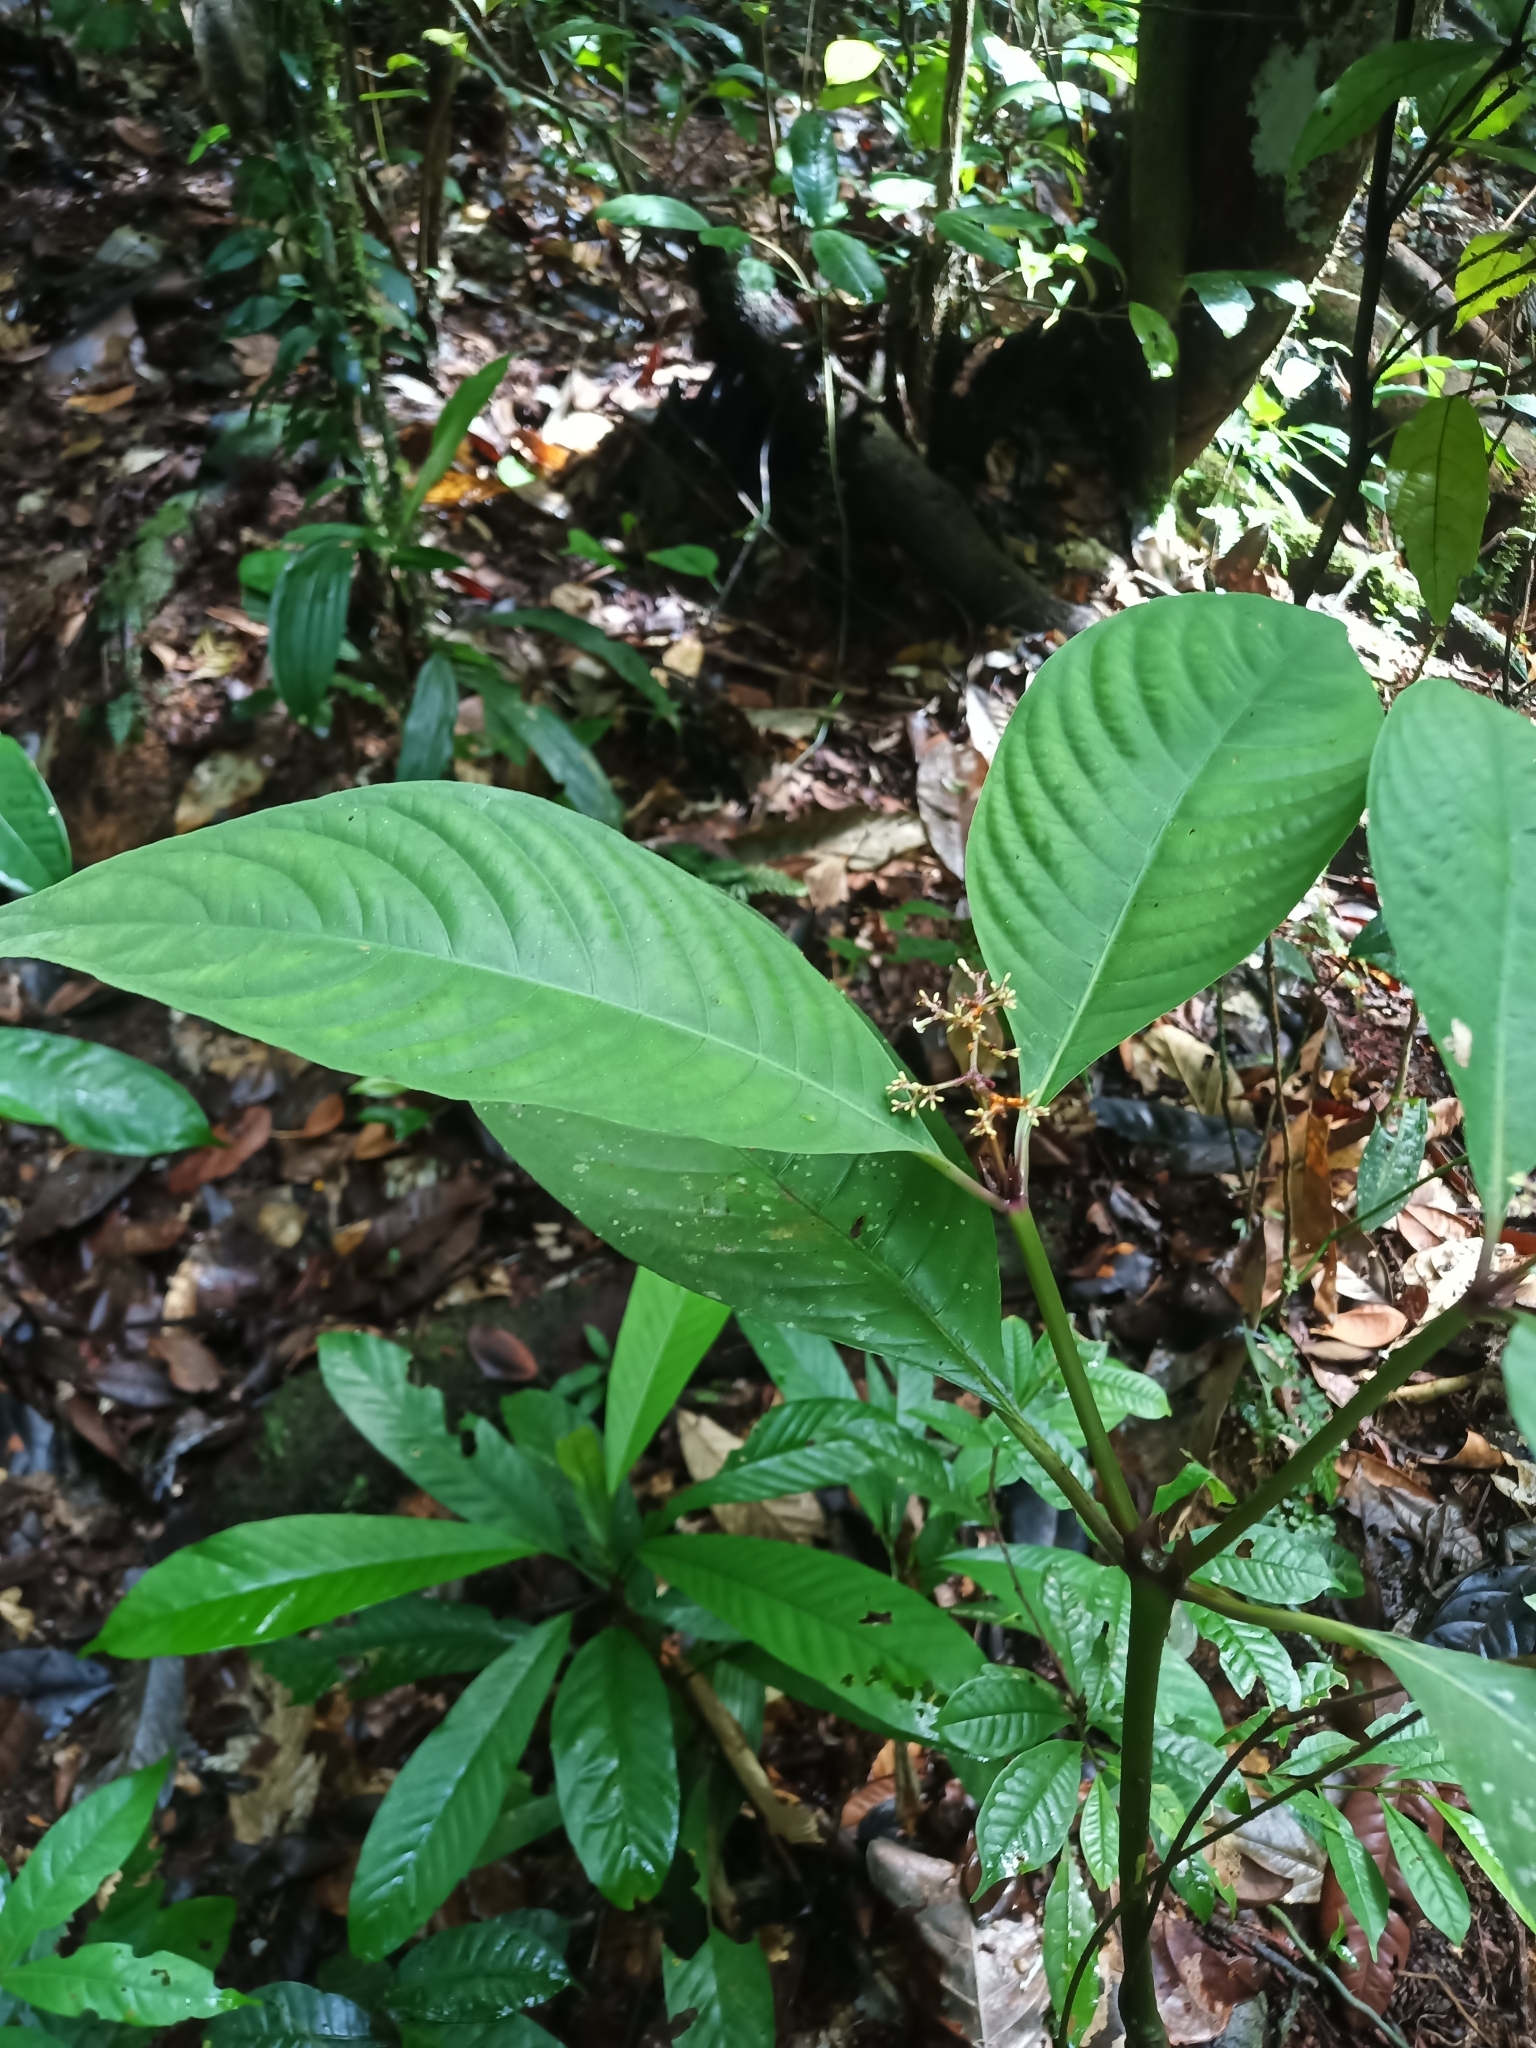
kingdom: Plantae
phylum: Tracheophyta
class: Magnoliopsida
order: Gentianales
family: Rubiaceae
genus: Palicourea
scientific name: Palicourea microbotrys
